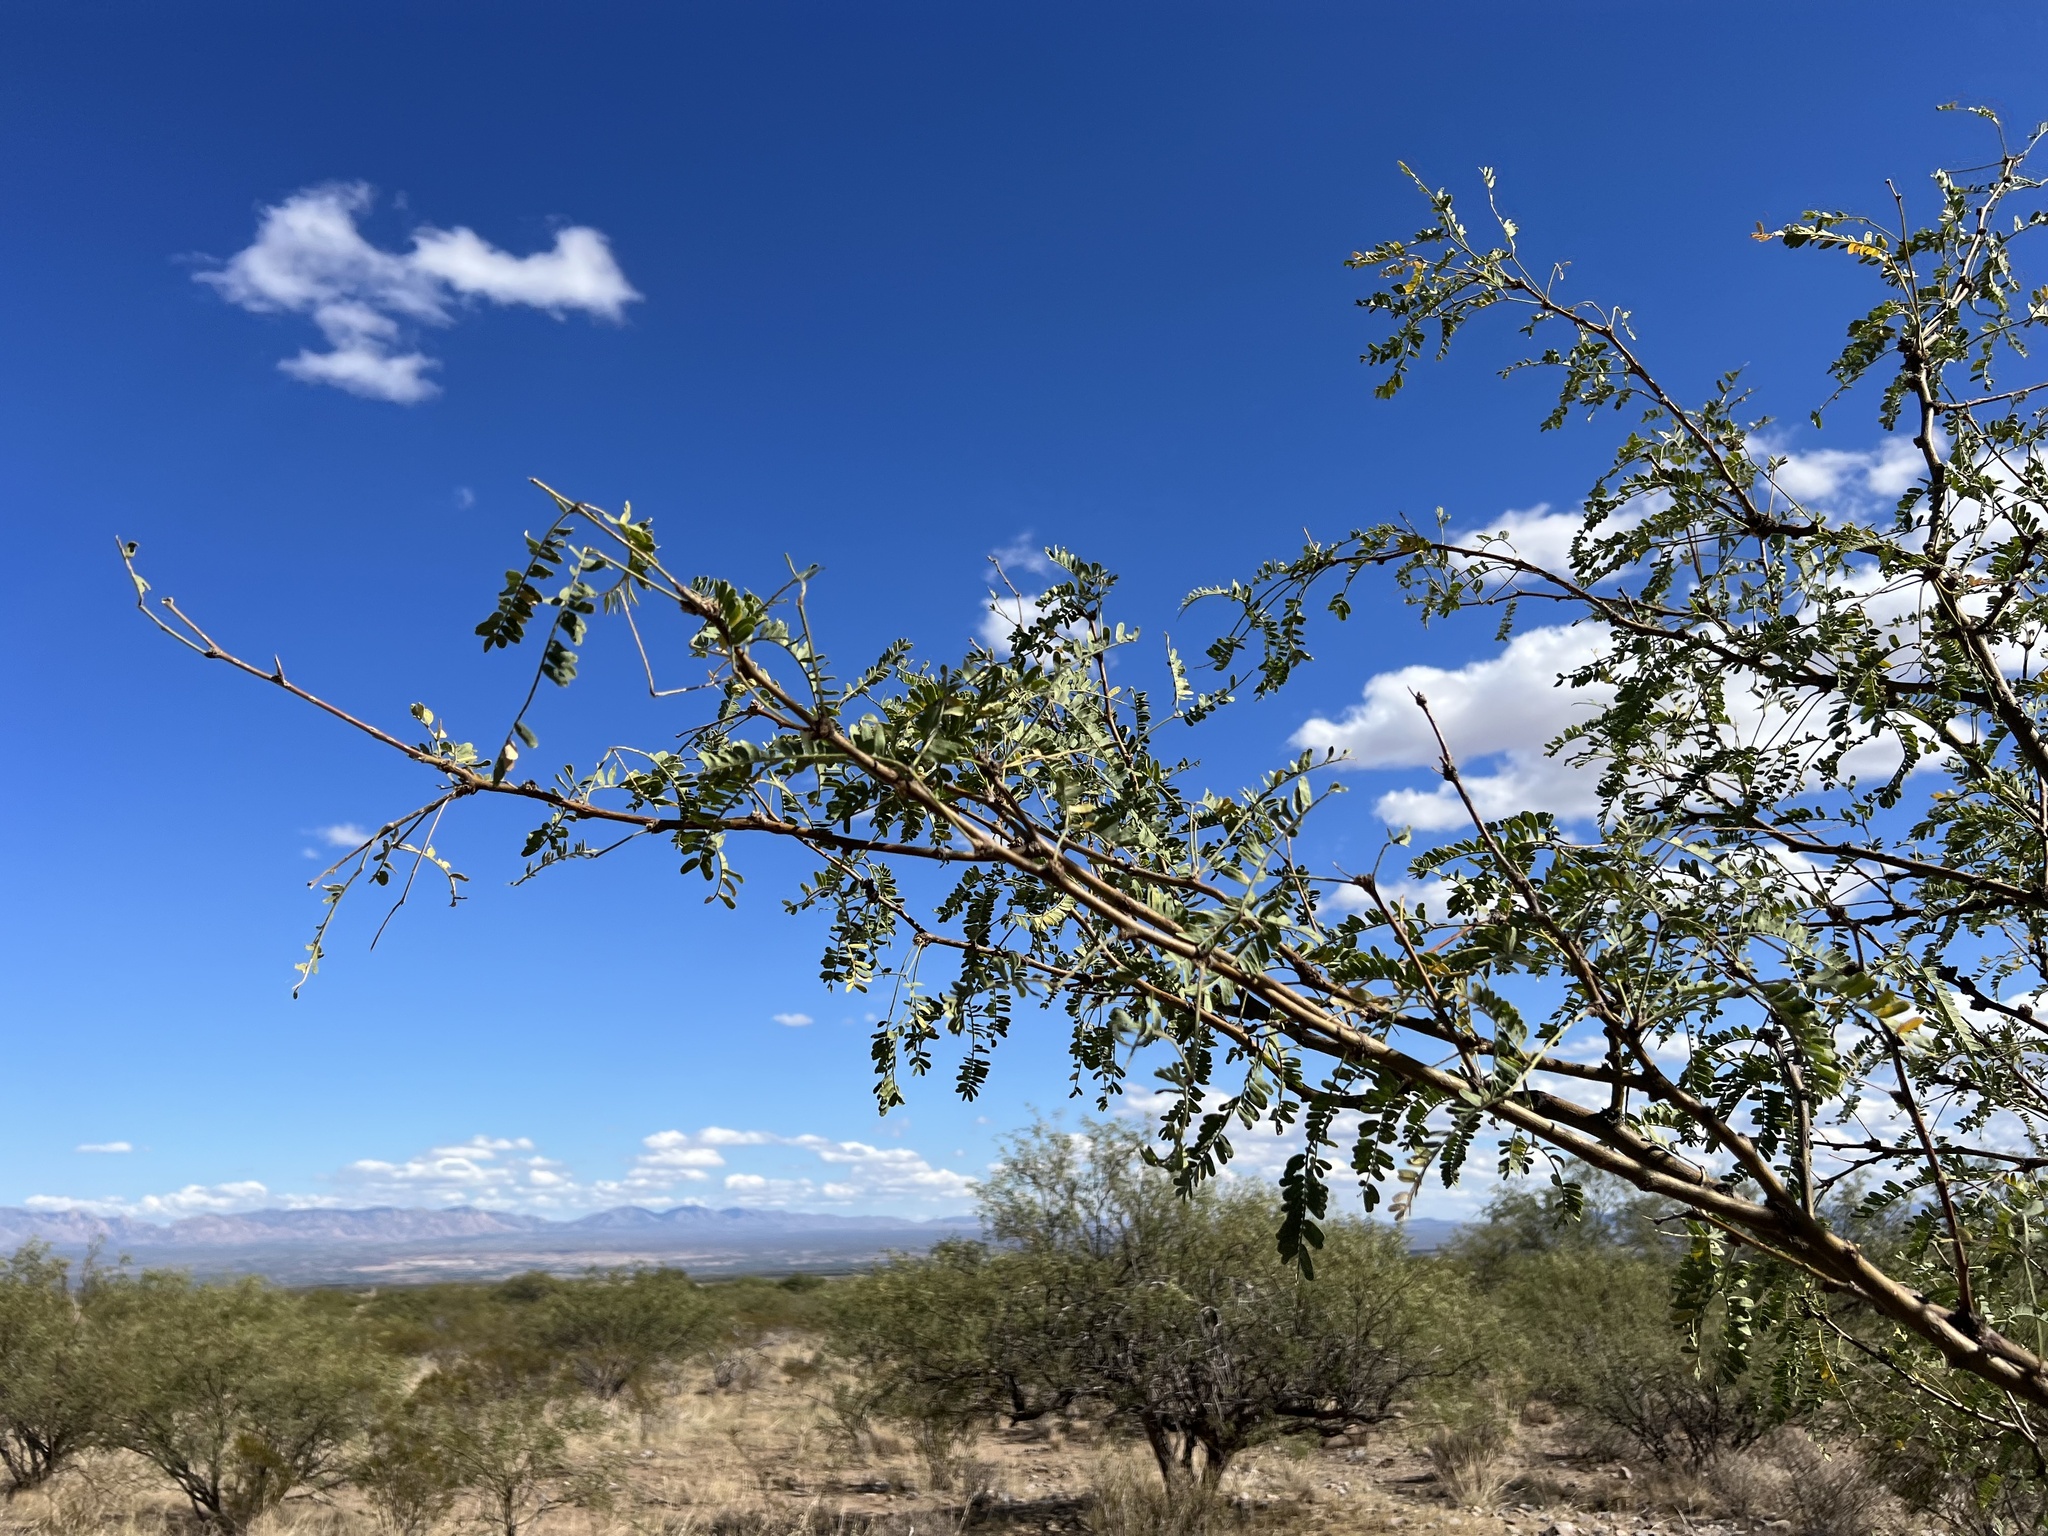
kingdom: Plantae
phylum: Tracheophyta
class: Magnoliopsida
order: Fabales
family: Fabaceae
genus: Prosopis
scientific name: Prosopis velutina
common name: Velvet mesquite
